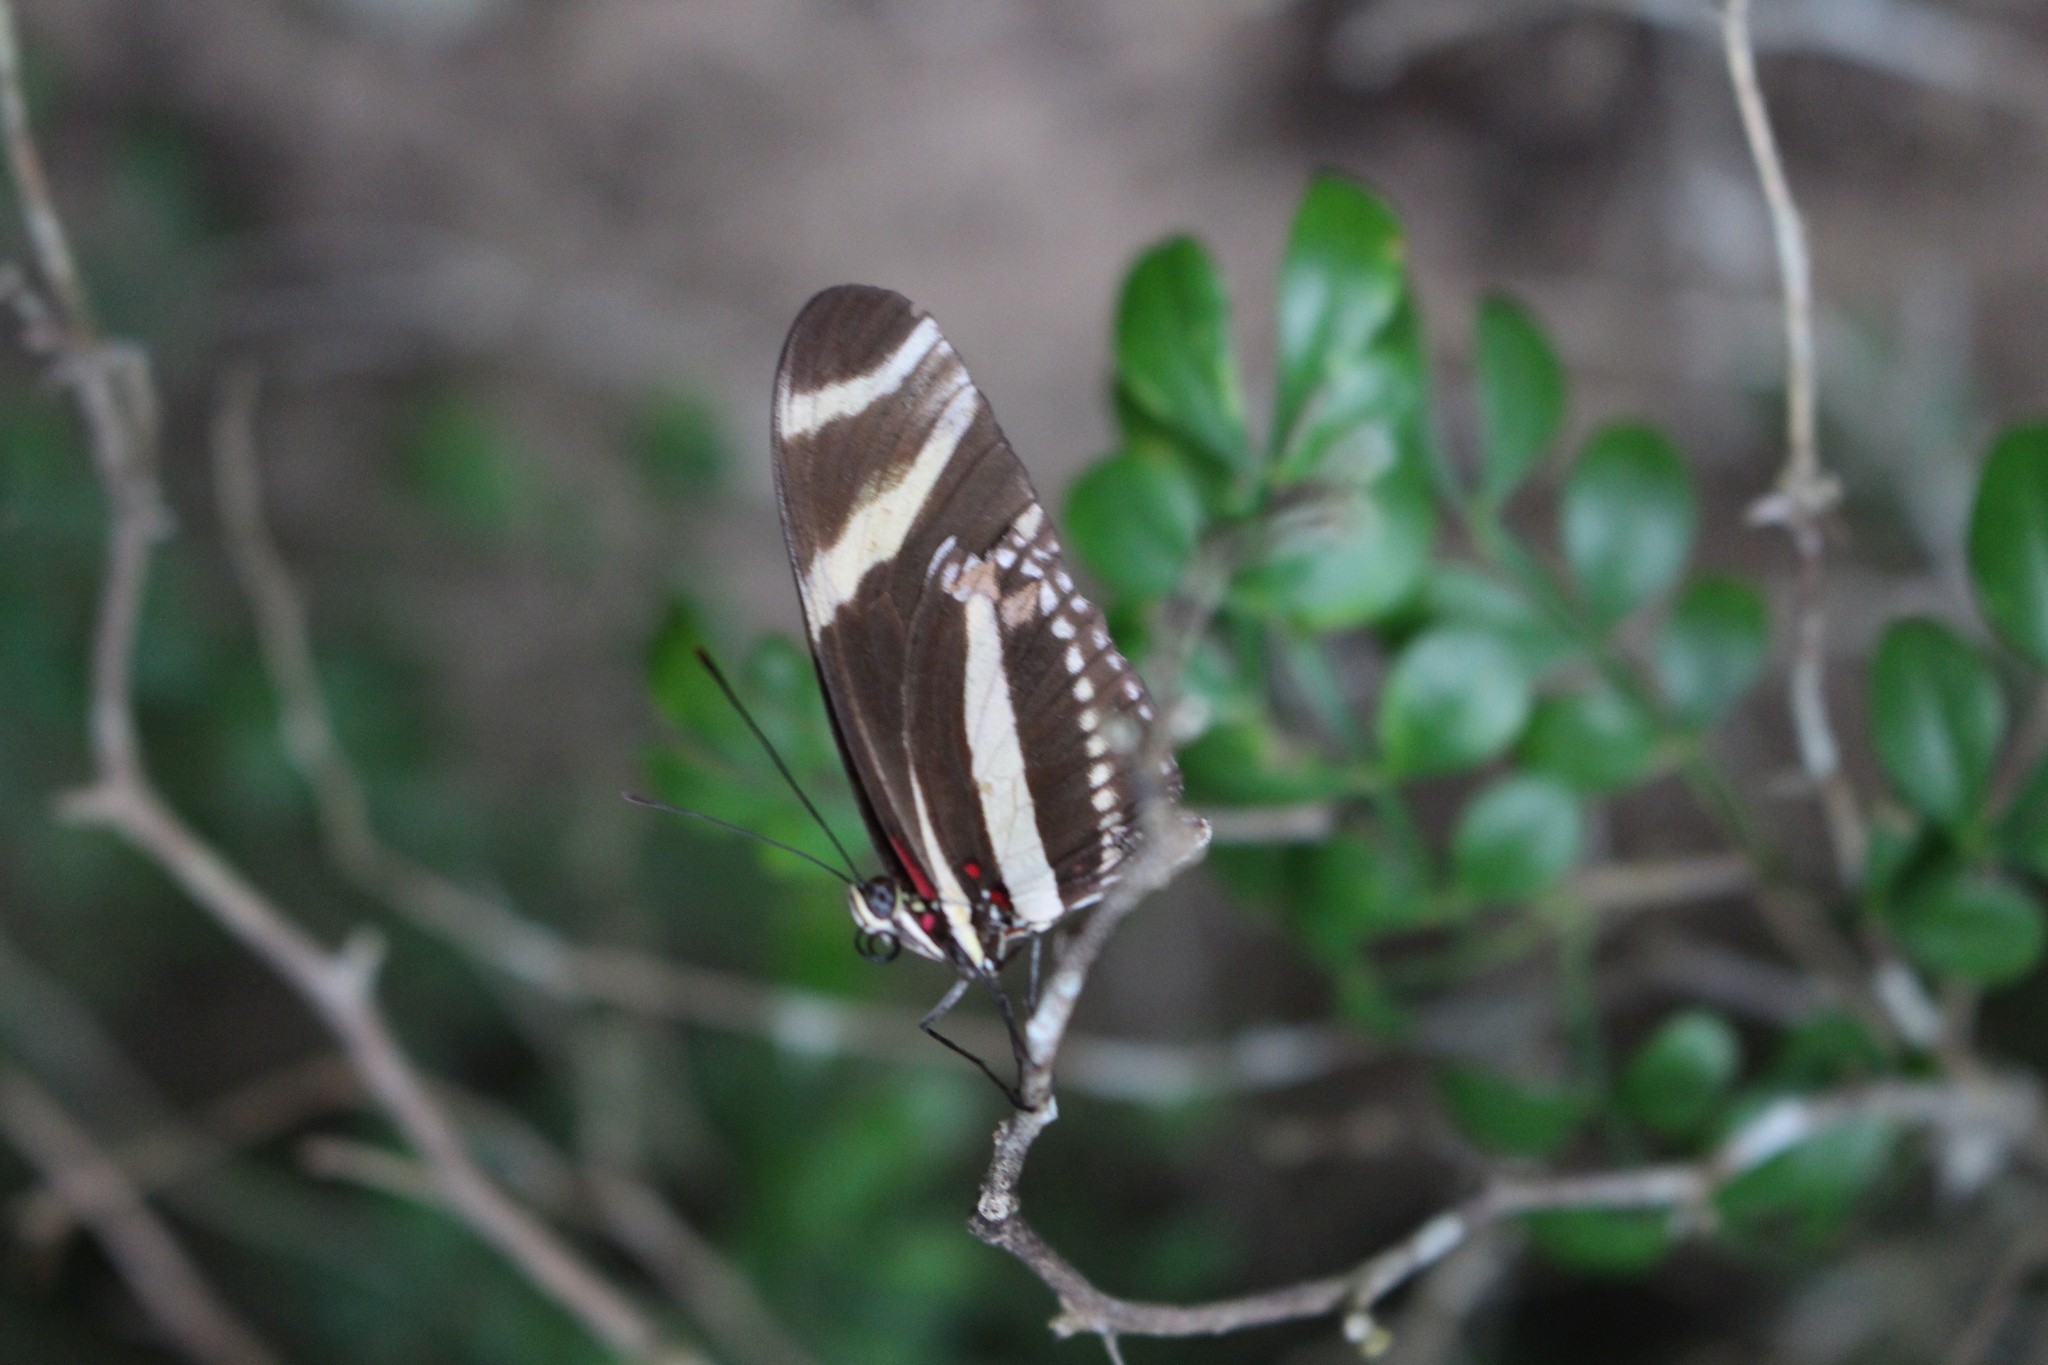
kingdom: Animalia
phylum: Arthropoda
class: Insecta
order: Lepidoptera
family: Nymphalidae
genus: Heliconius
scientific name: Heliconius charithonia
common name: Zebra long wing
